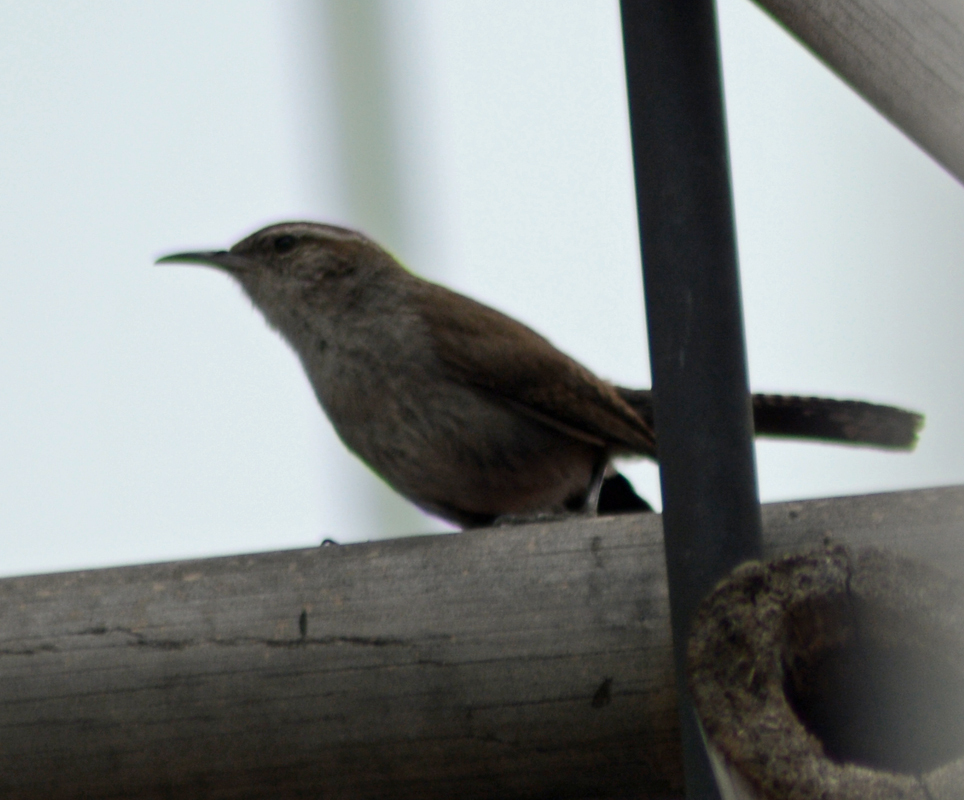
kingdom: Animalia
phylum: Chordata
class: Aves
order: Passeriformes
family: Troglodytidae
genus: Thryomanes
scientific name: Thryomanes bewickii
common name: Bewick's wren
